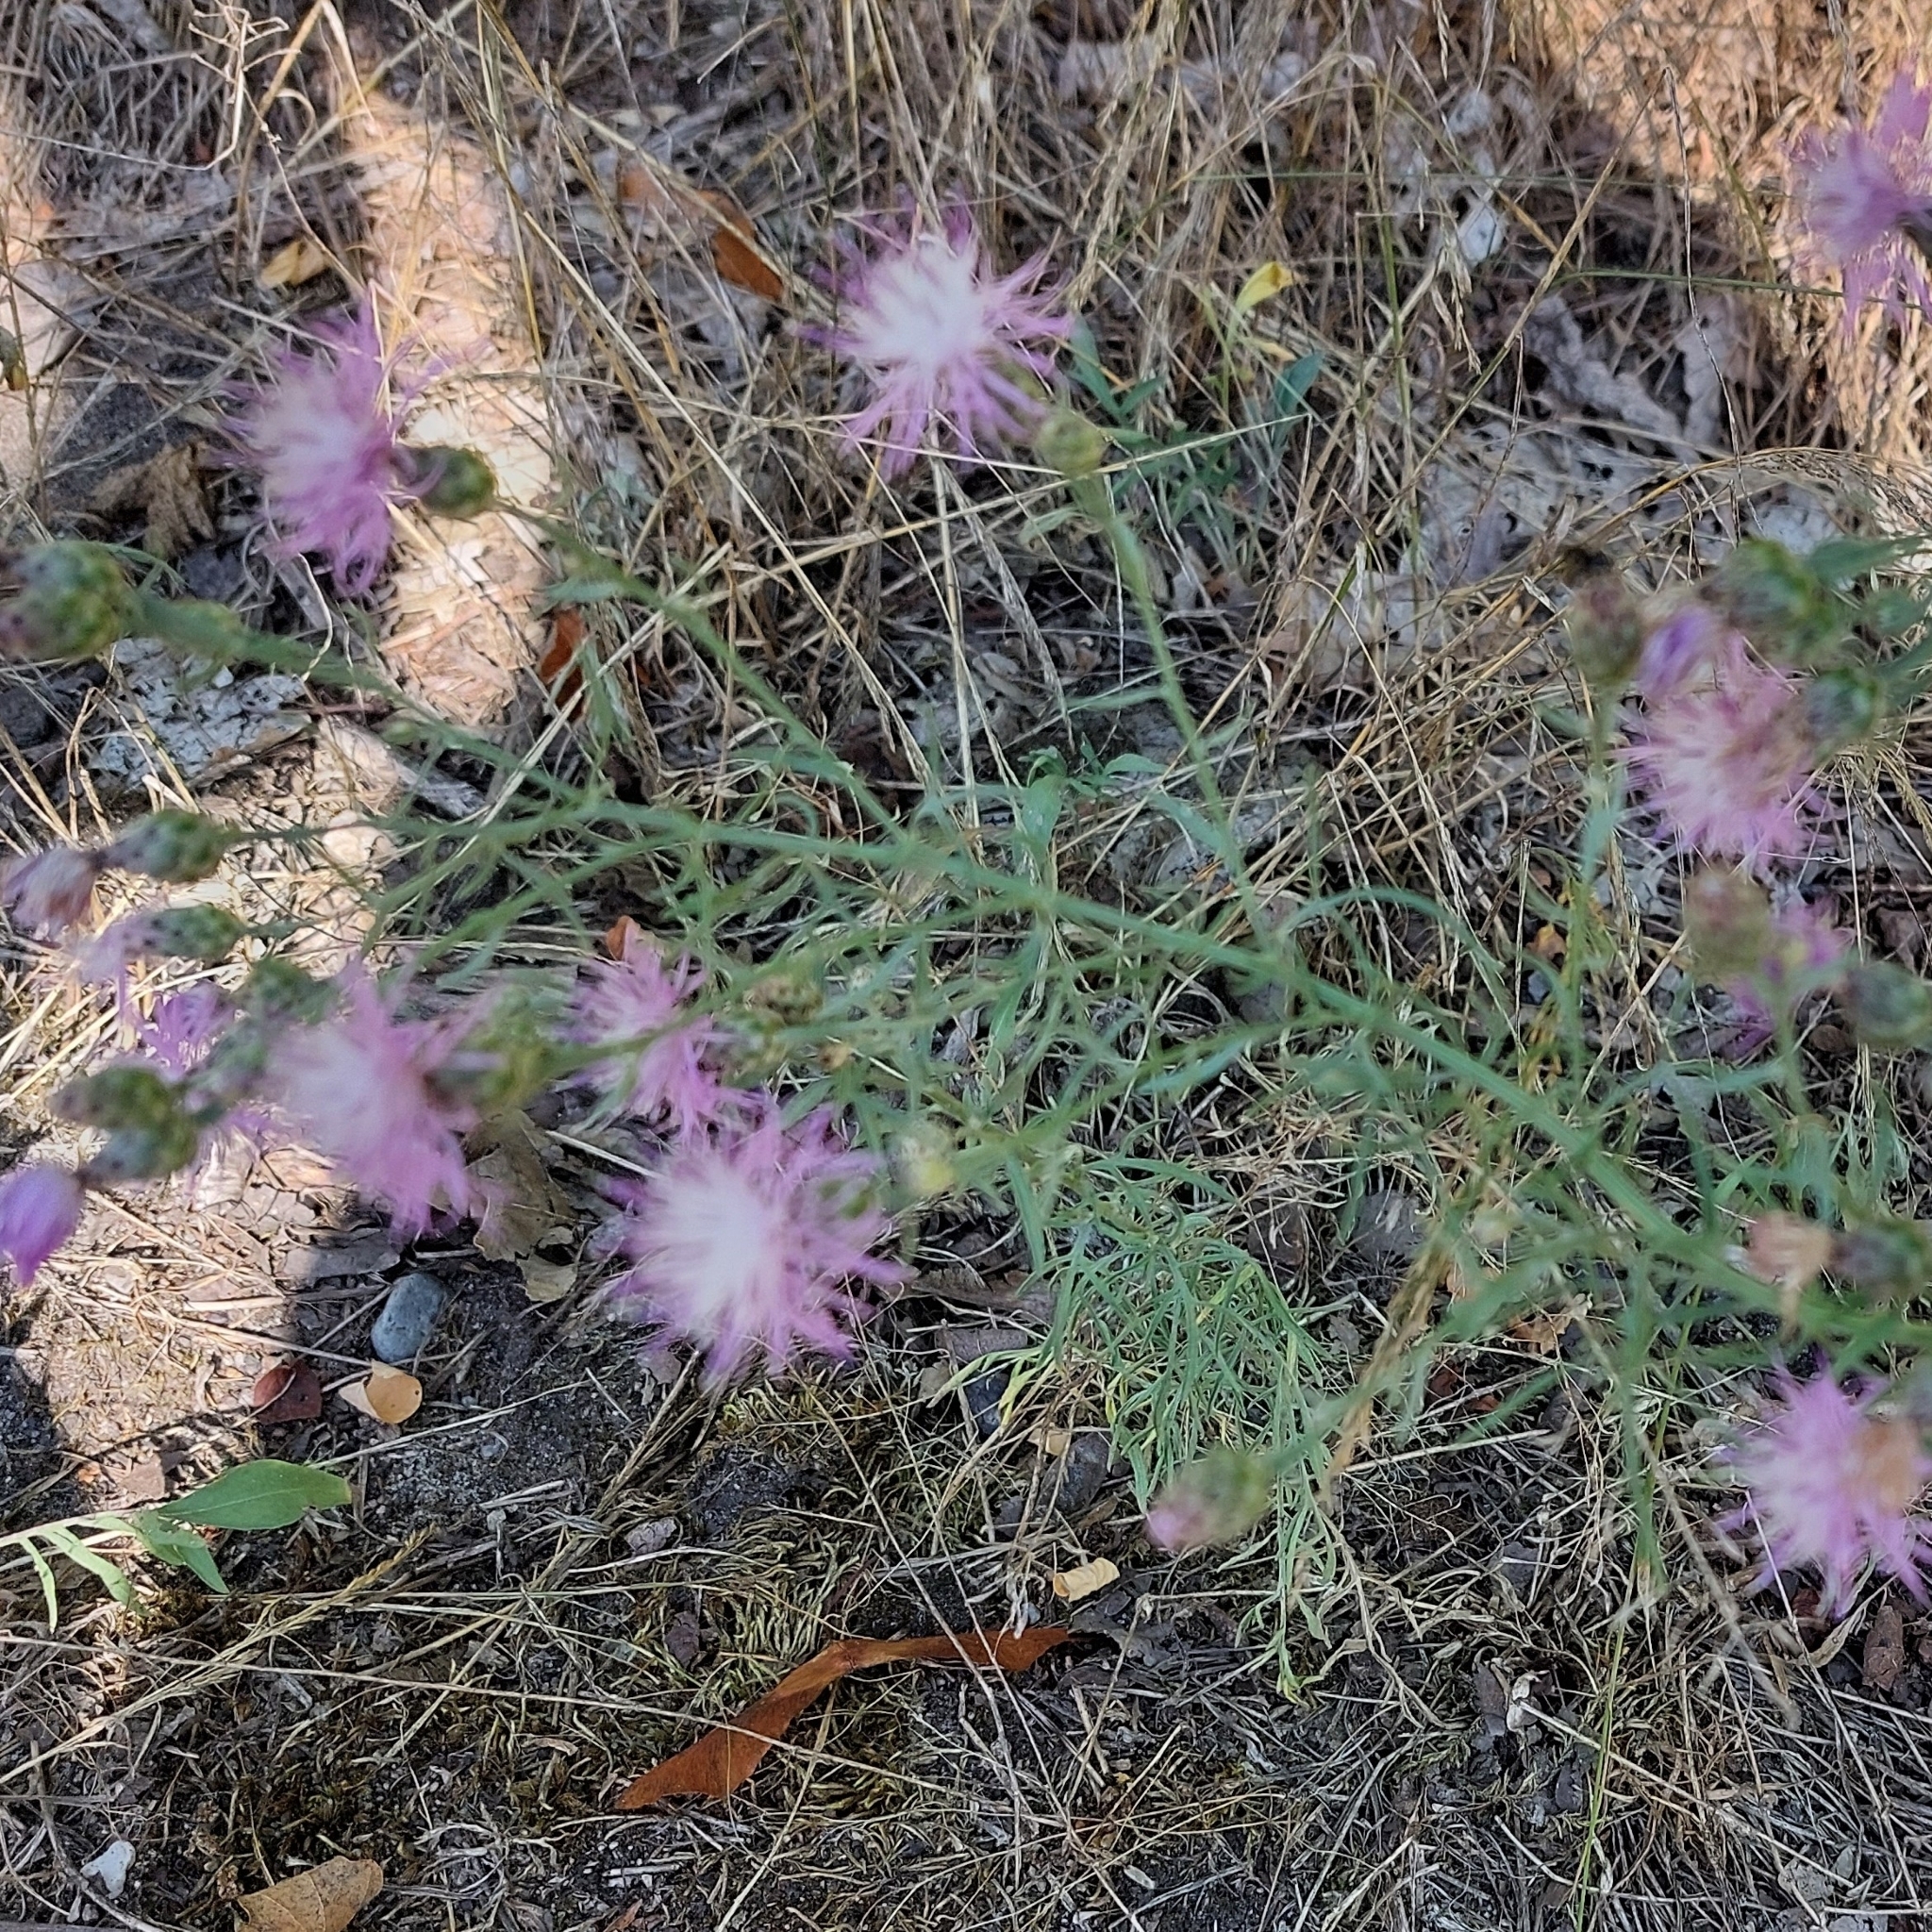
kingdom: Plantae
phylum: Tracheophyta
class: Magnoliopsida
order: Asterales
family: Asteraceae
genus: Centaurea
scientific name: Centaurea stoebe
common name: Spotted knapweed
